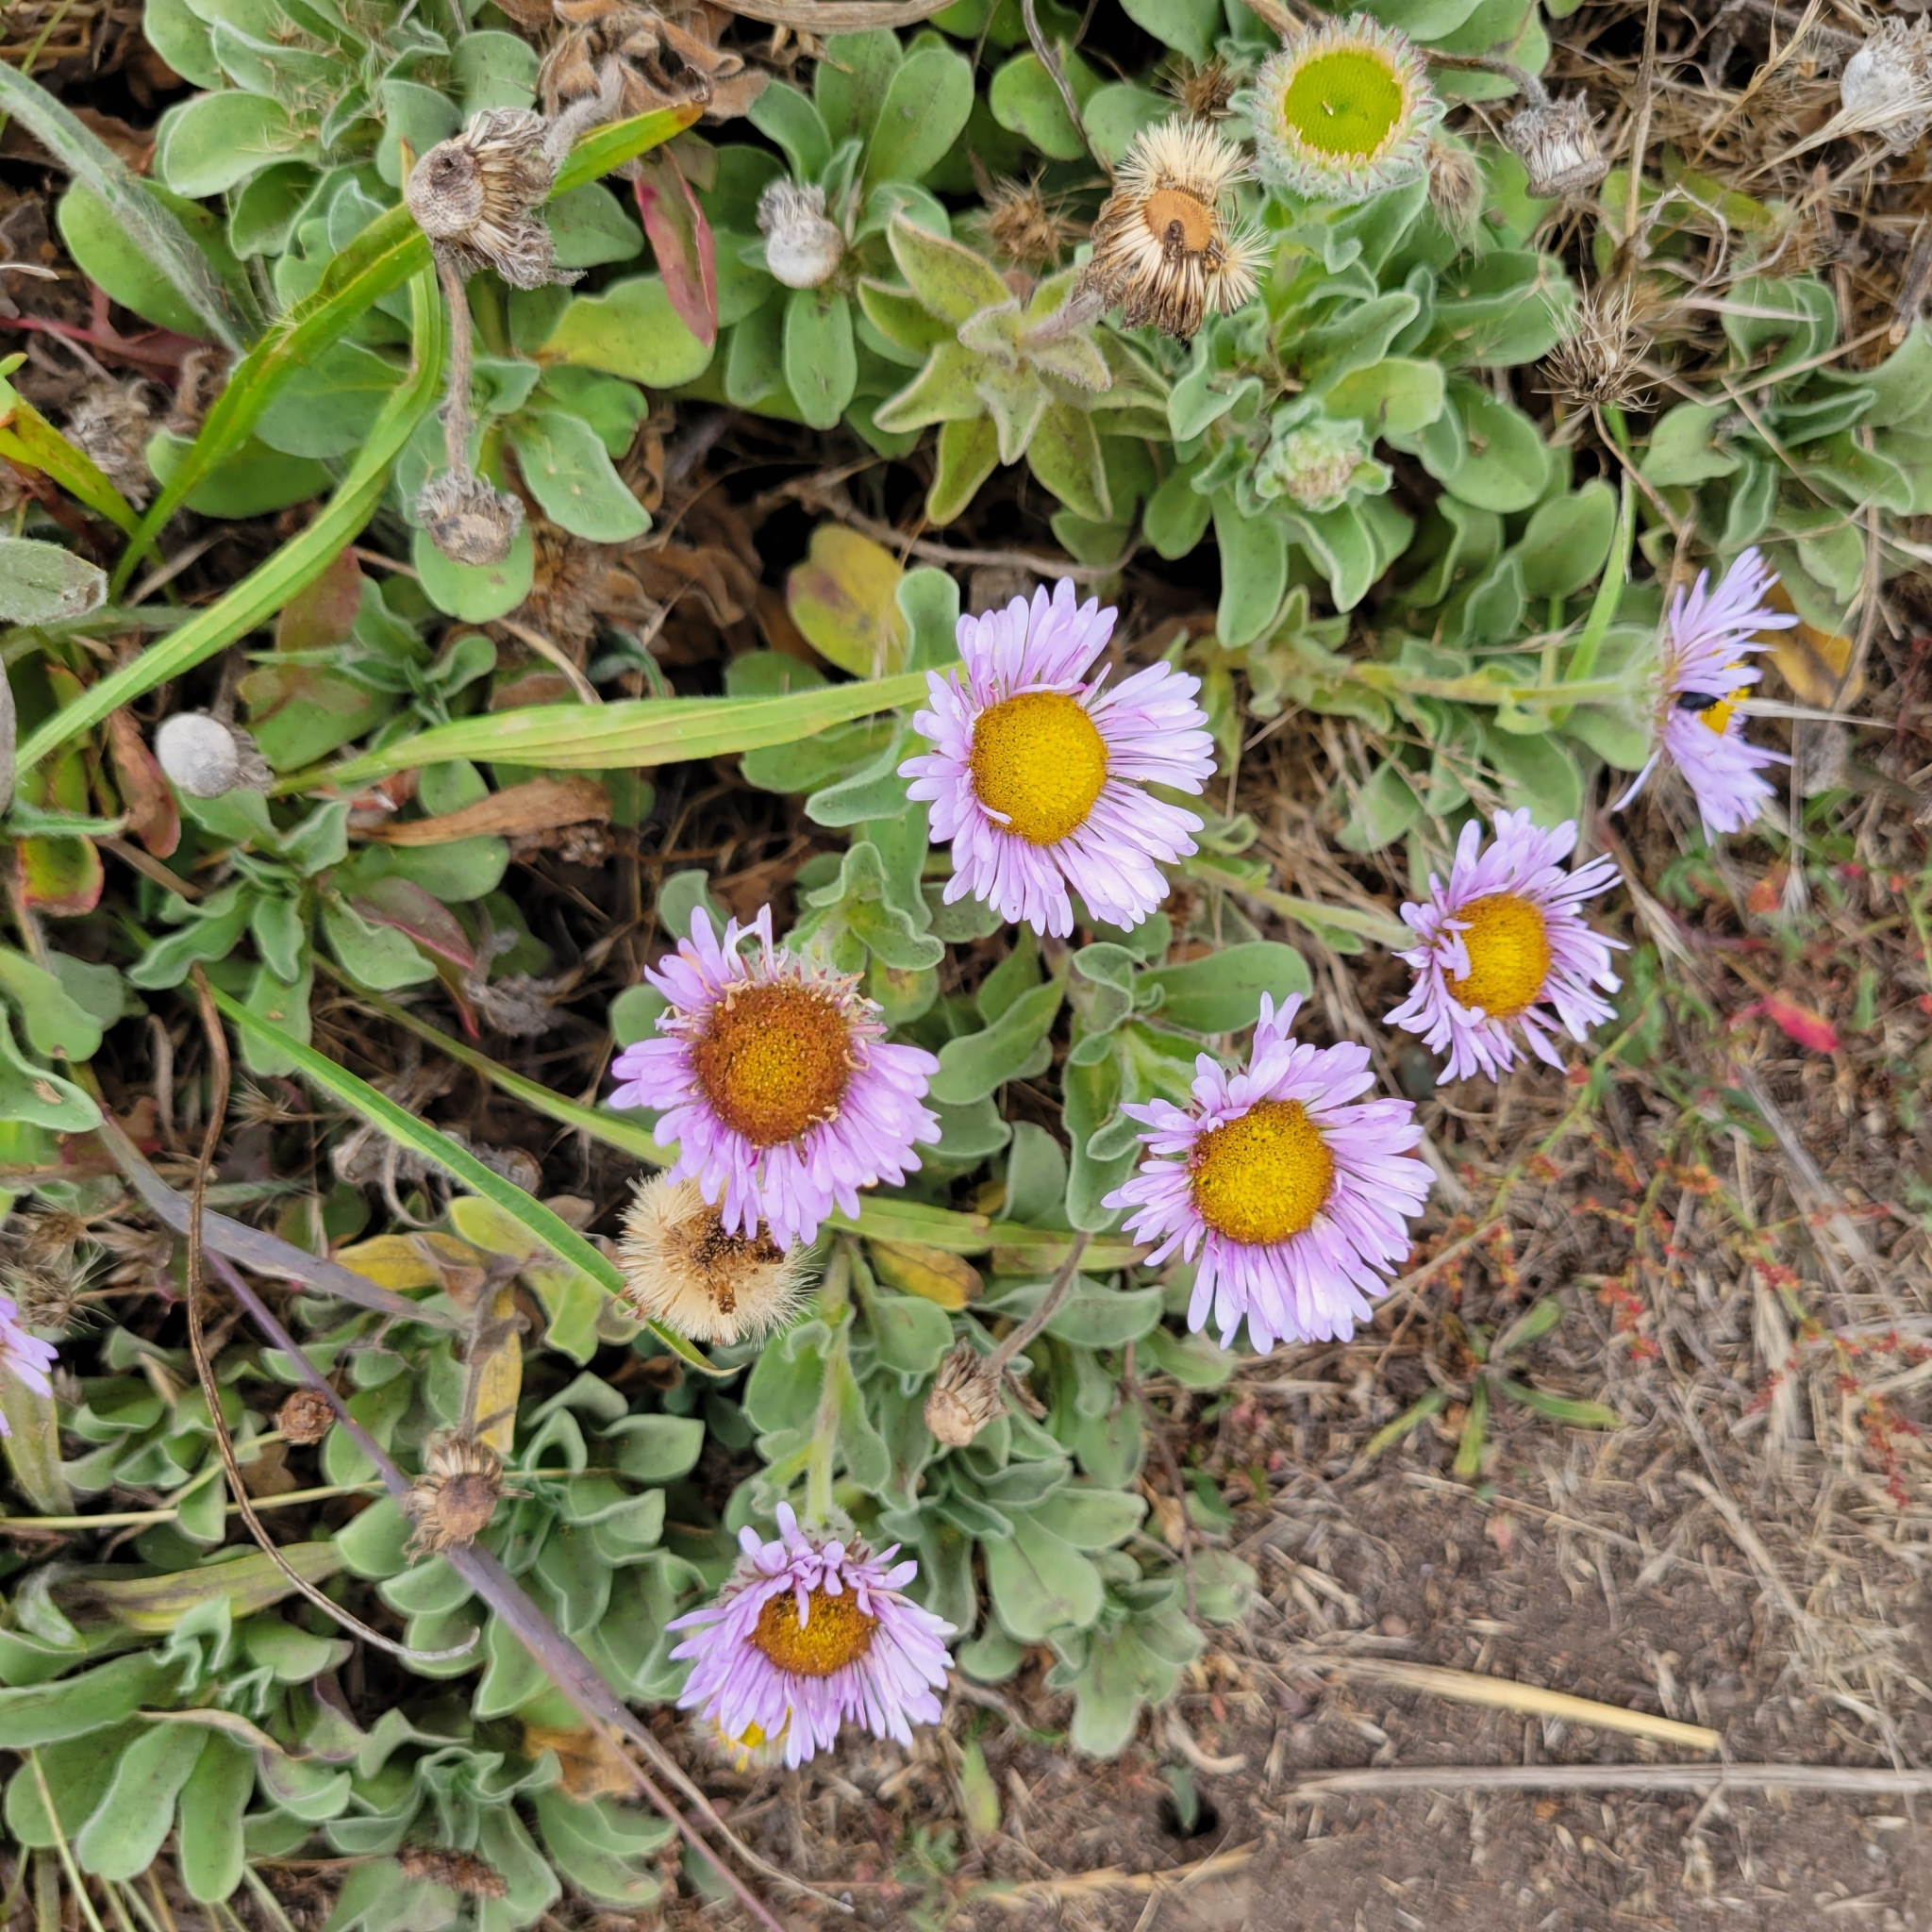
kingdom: Plantae
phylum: Tracheophyta
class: Magnoliopsida
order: Asterales
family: Asteraceae
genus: Erigeron
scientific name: Erigeron glaucus
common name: Seaside daisy
